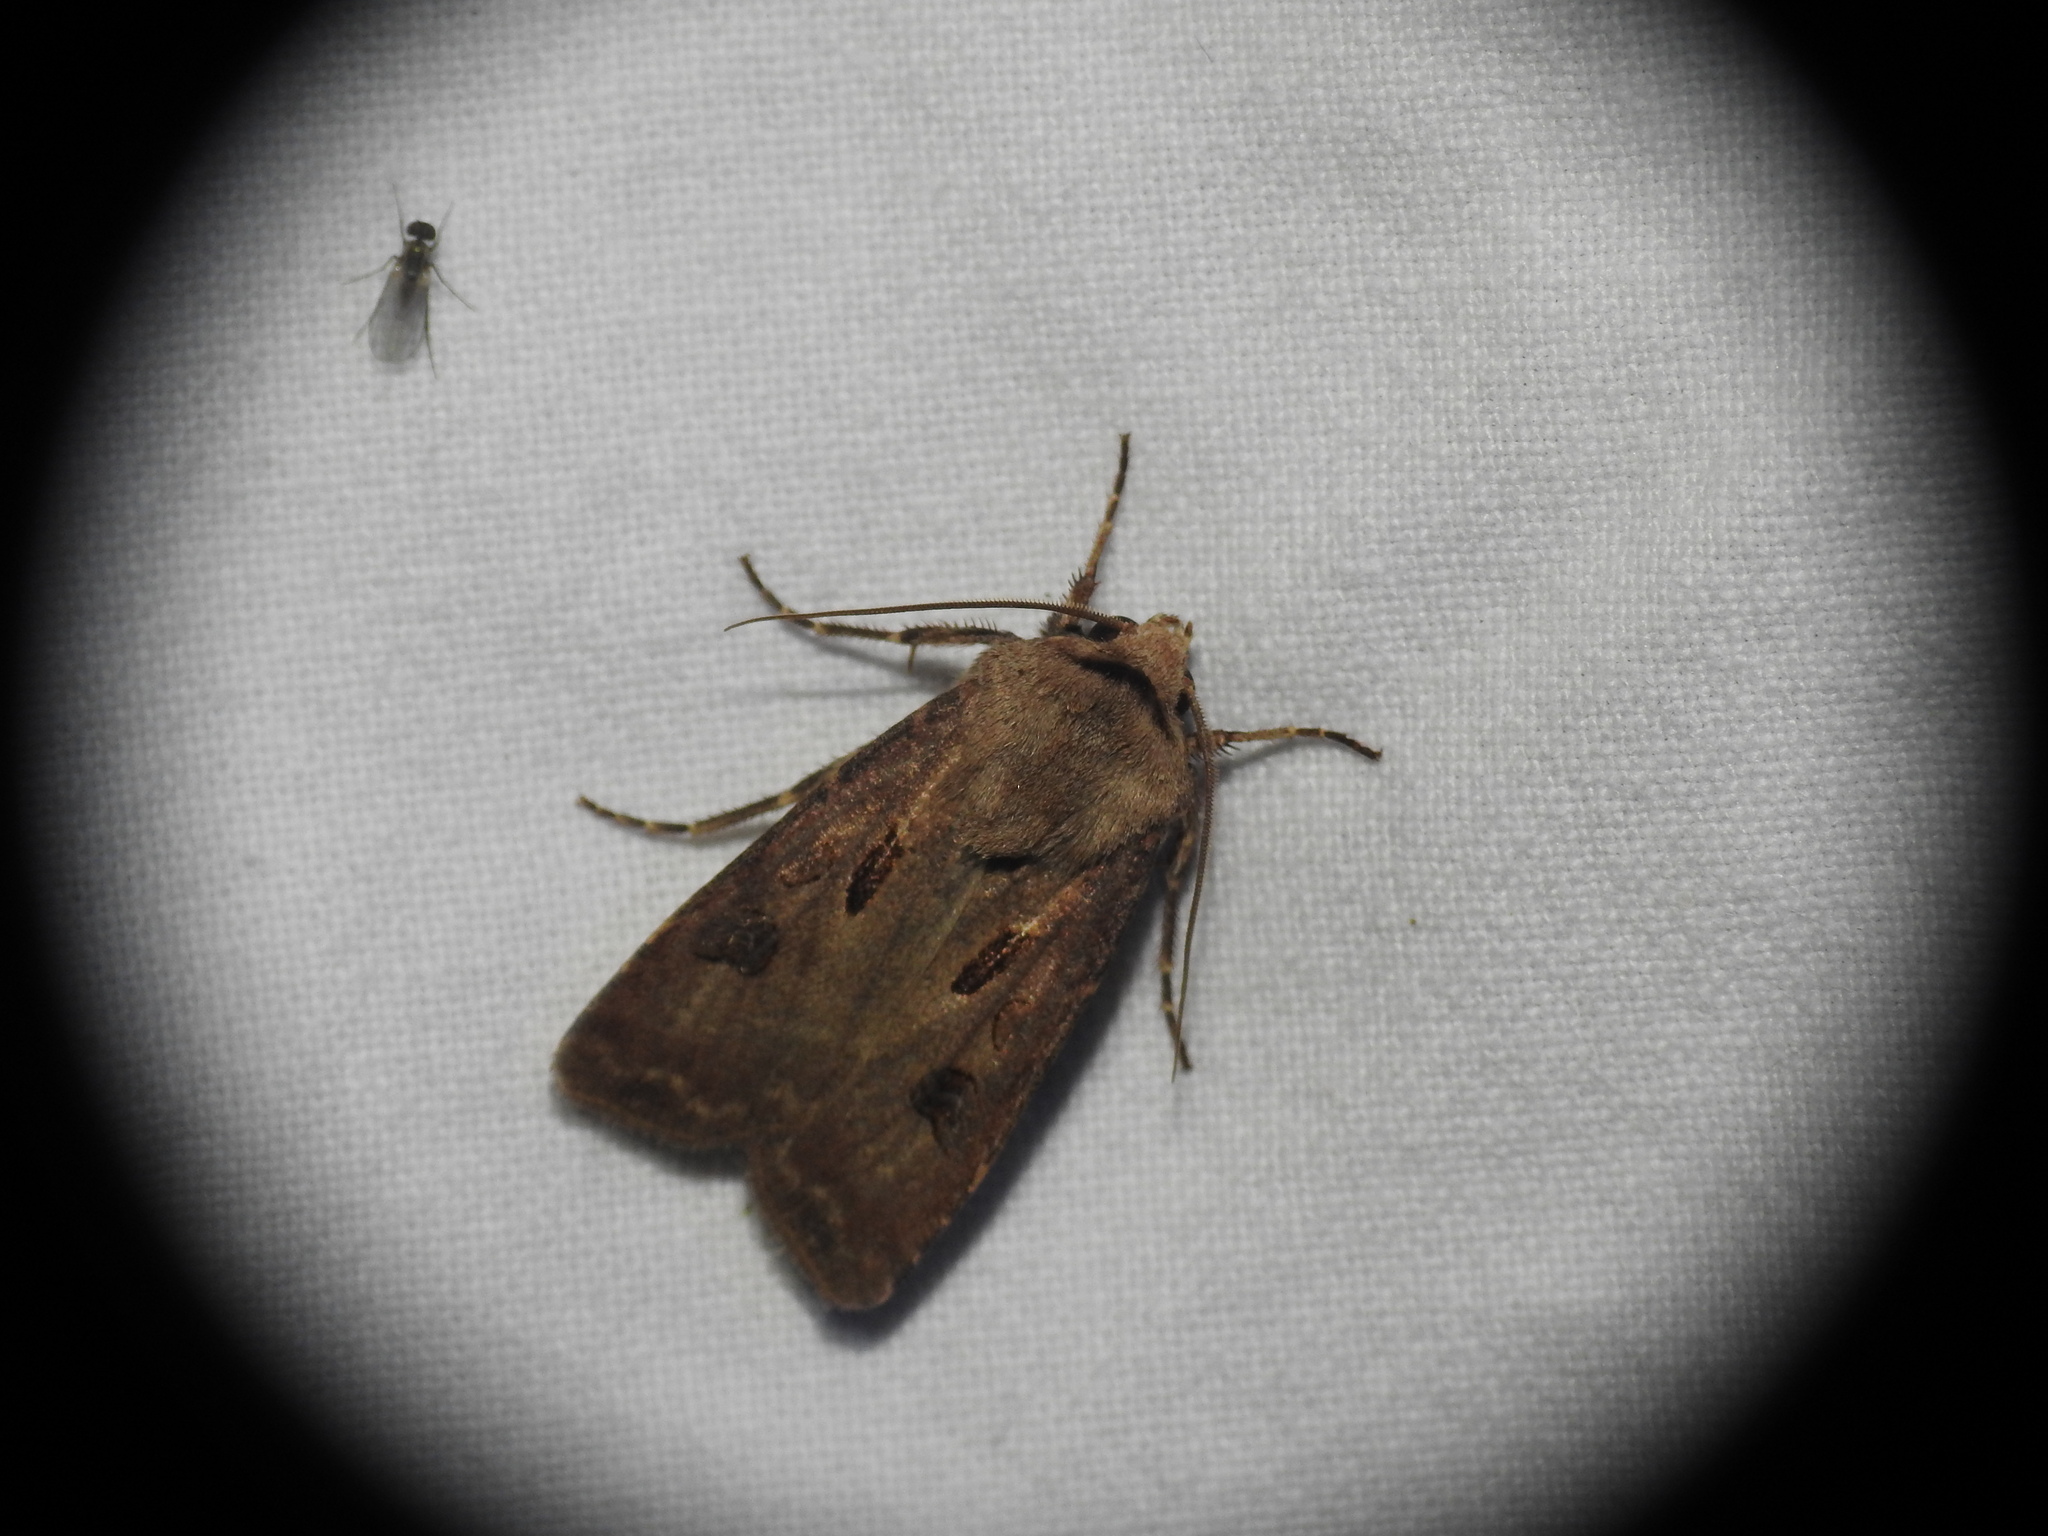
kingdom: Animalia
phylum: Arthropoda
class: Insecta
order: Lepidoptera
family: Noctuidae
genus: Agrotis
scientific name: Agrotis exclamationis
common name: Heart and dart
